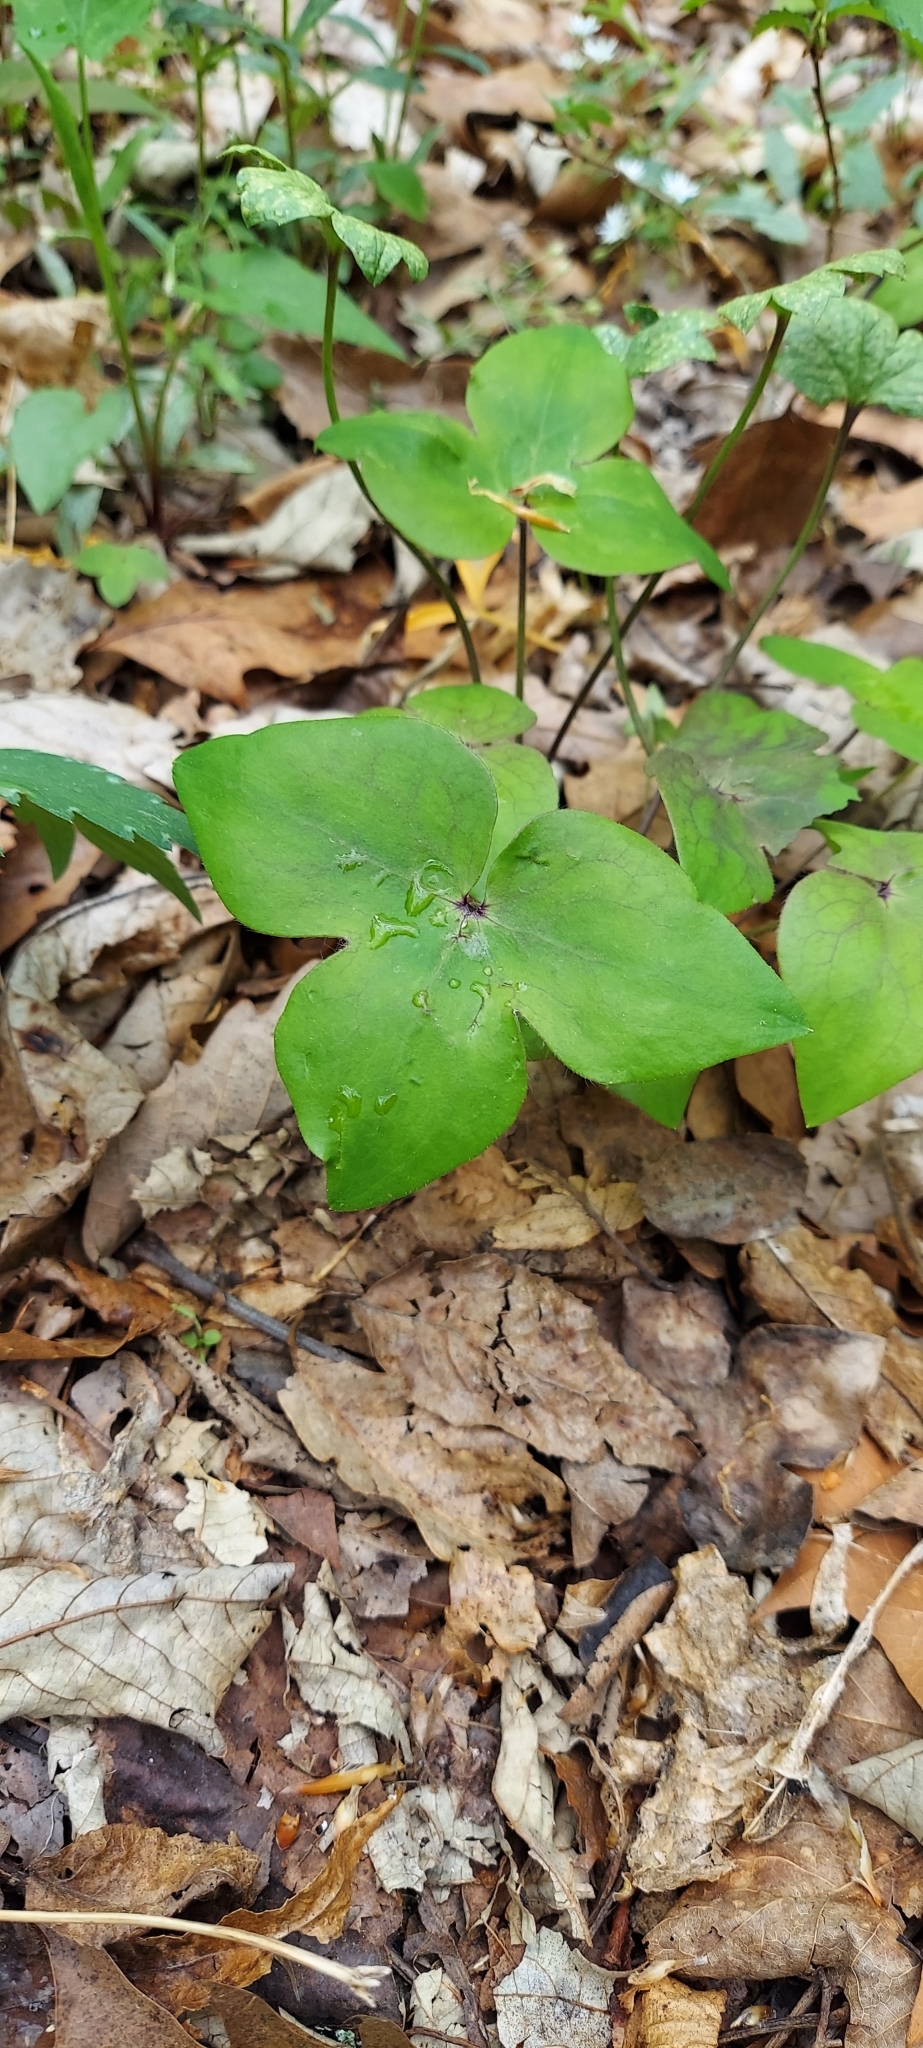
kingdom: Plantae
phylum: Tracheophyta
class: Magnoliopsida
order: Ranunculales
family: Ranunculaceae
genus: Hepatica
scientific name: Hepatica acutiloba
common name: Sharp-lobed hepatica
